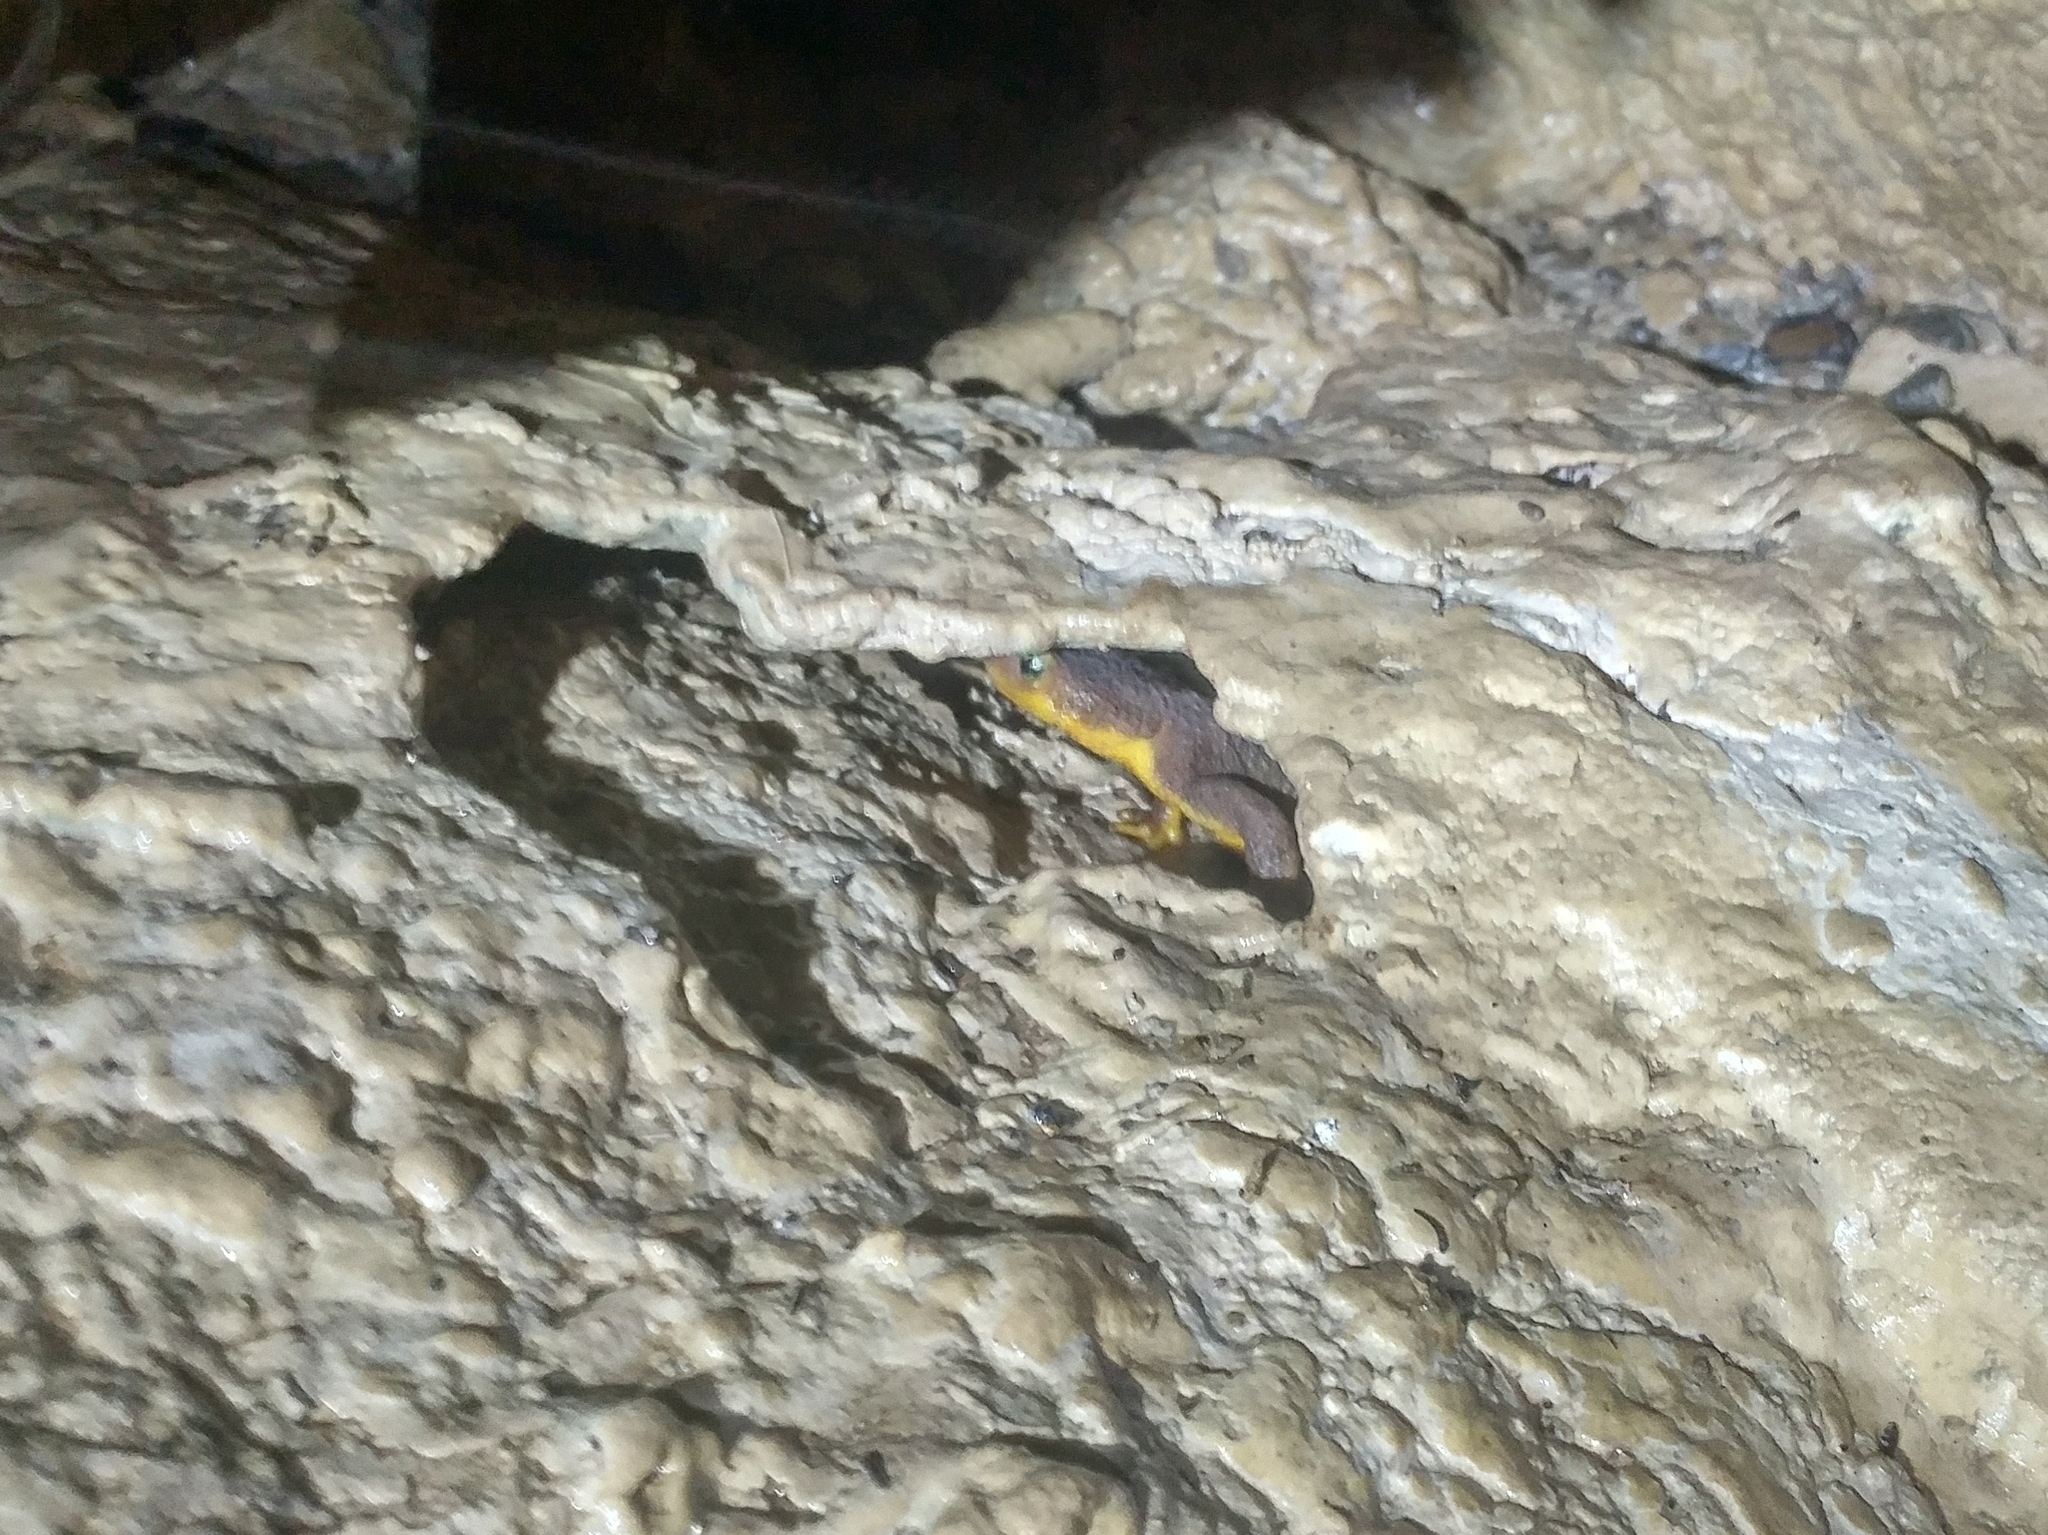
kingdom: Animalia
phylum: Chordata
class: Amphibia
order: Caudata
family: Salamandridae
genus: Taricha
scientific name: Taricha torosa
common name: California newt
